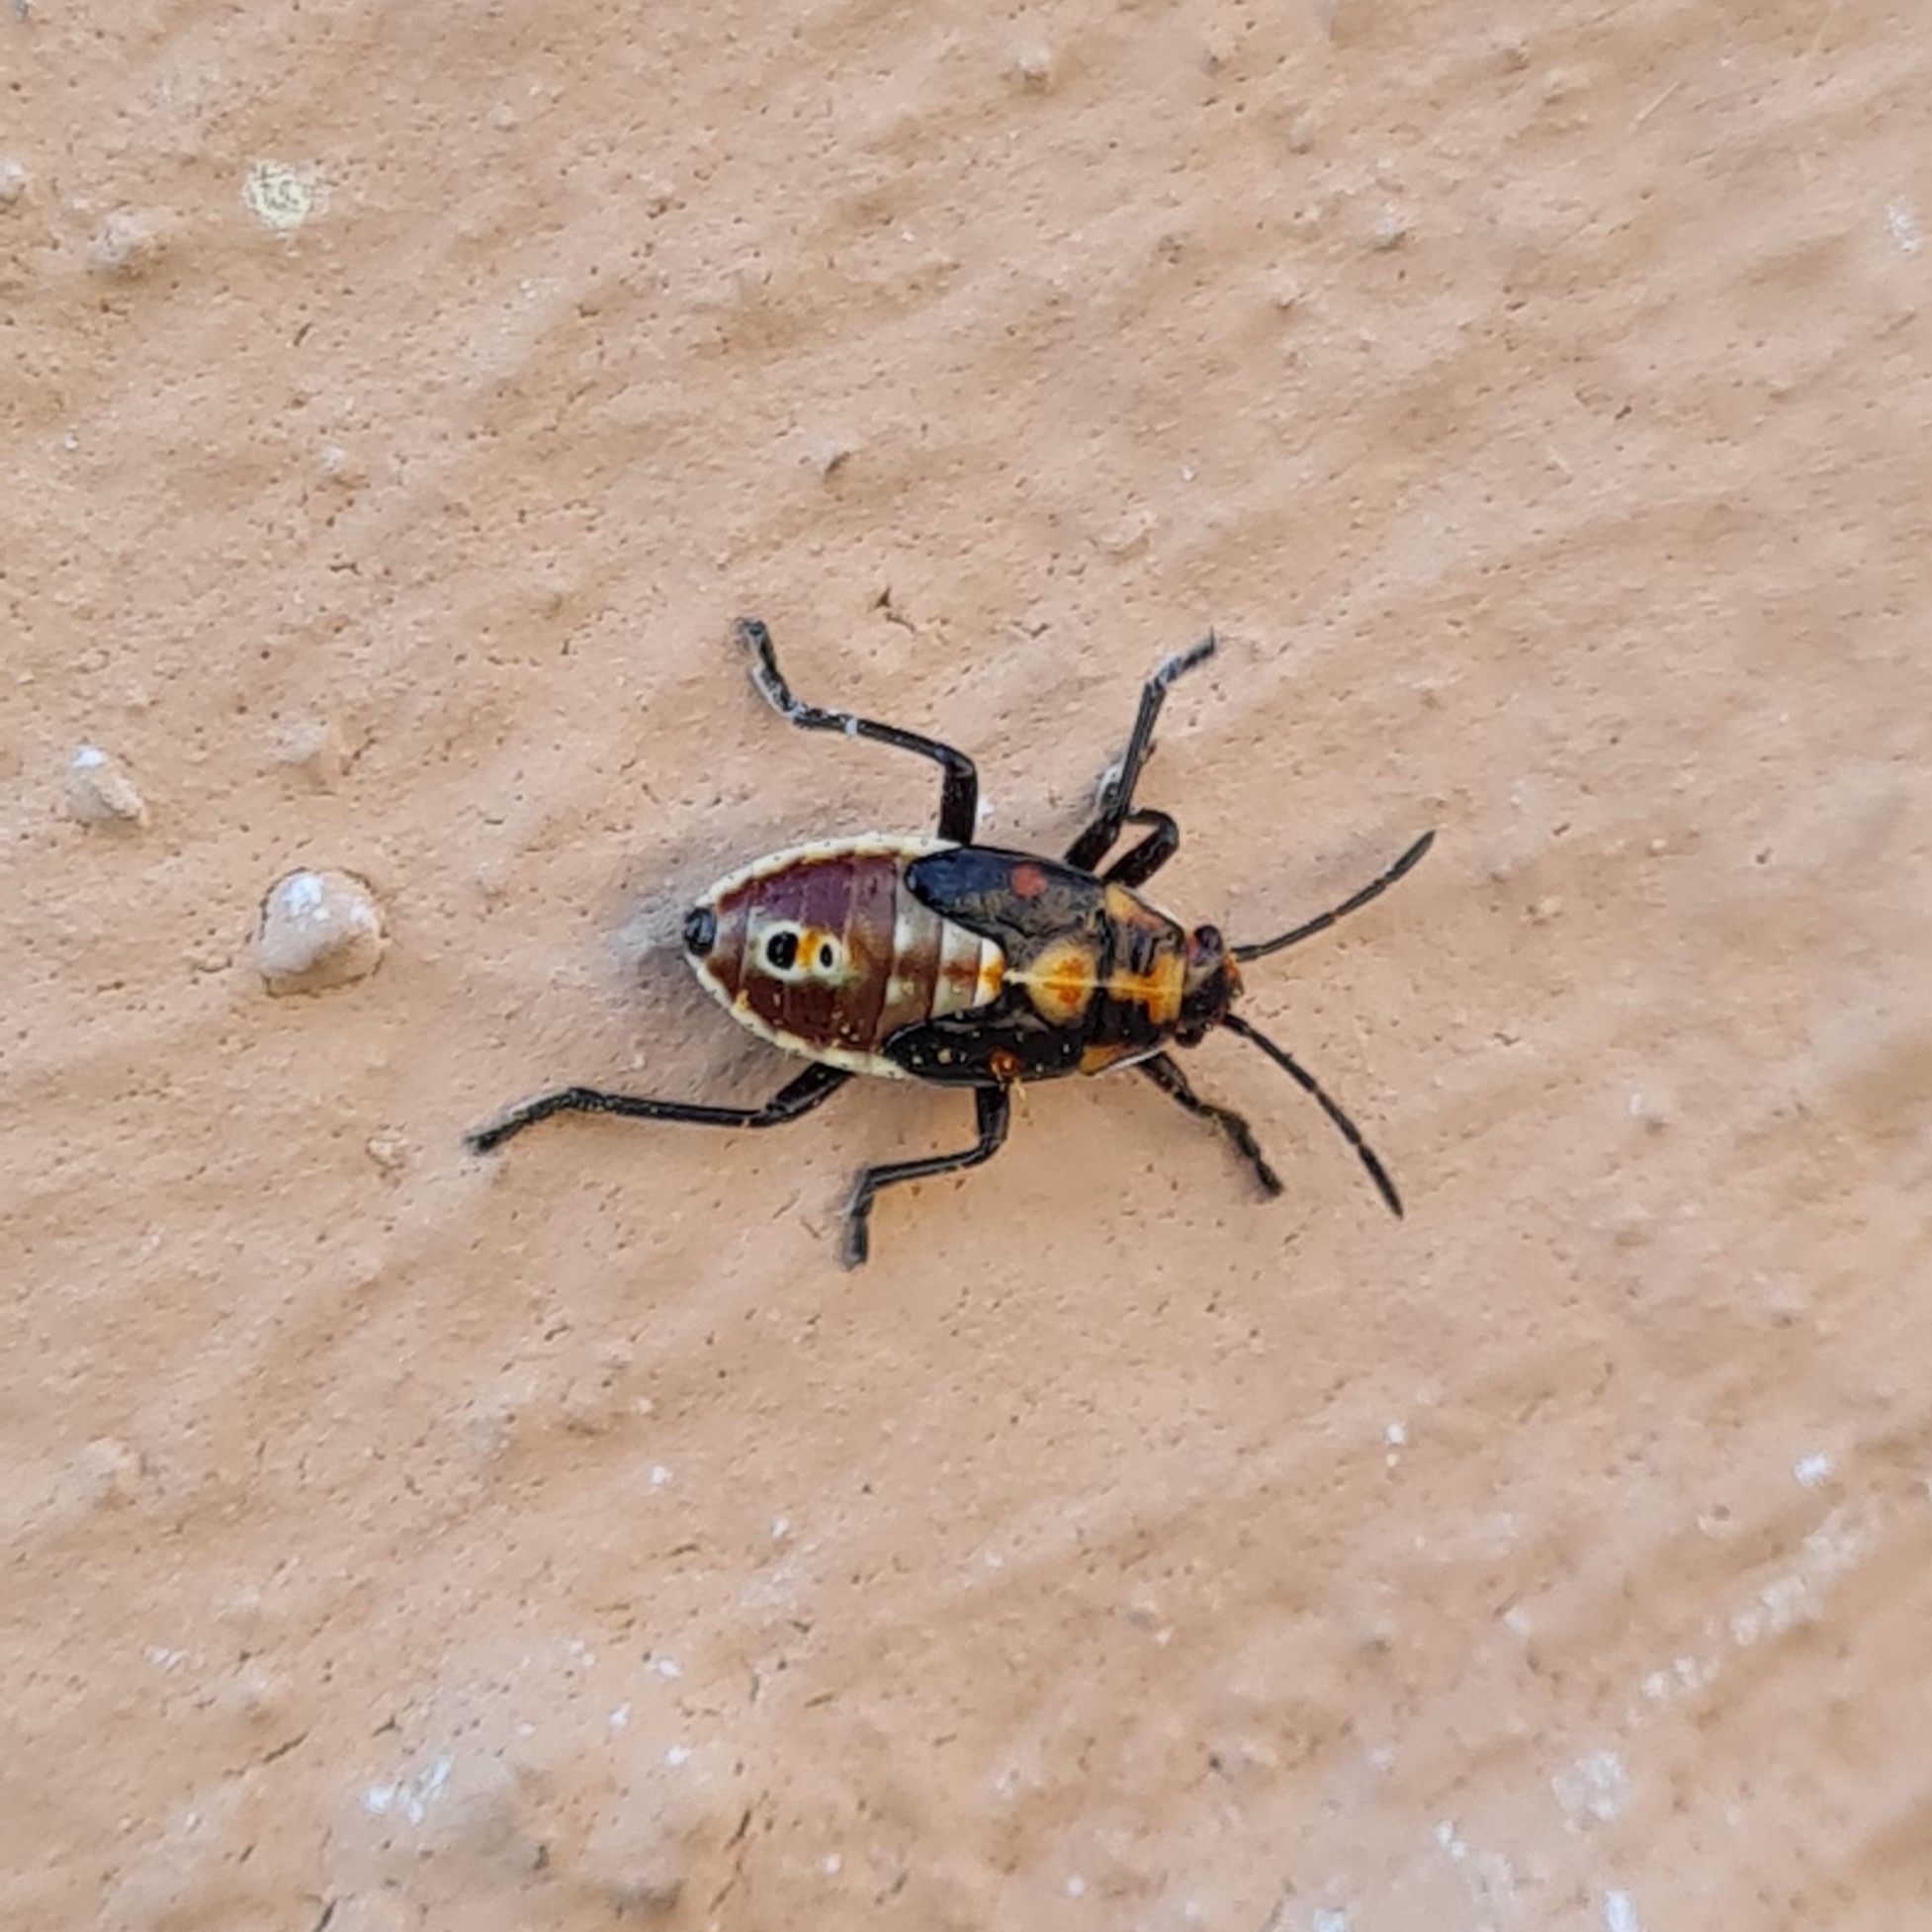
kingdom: Animalia
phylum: Arthropoda
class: Insecta
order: Hemiptera
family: Lygaeidae
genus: Spilostethus
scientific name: Spilostethus pandurus
